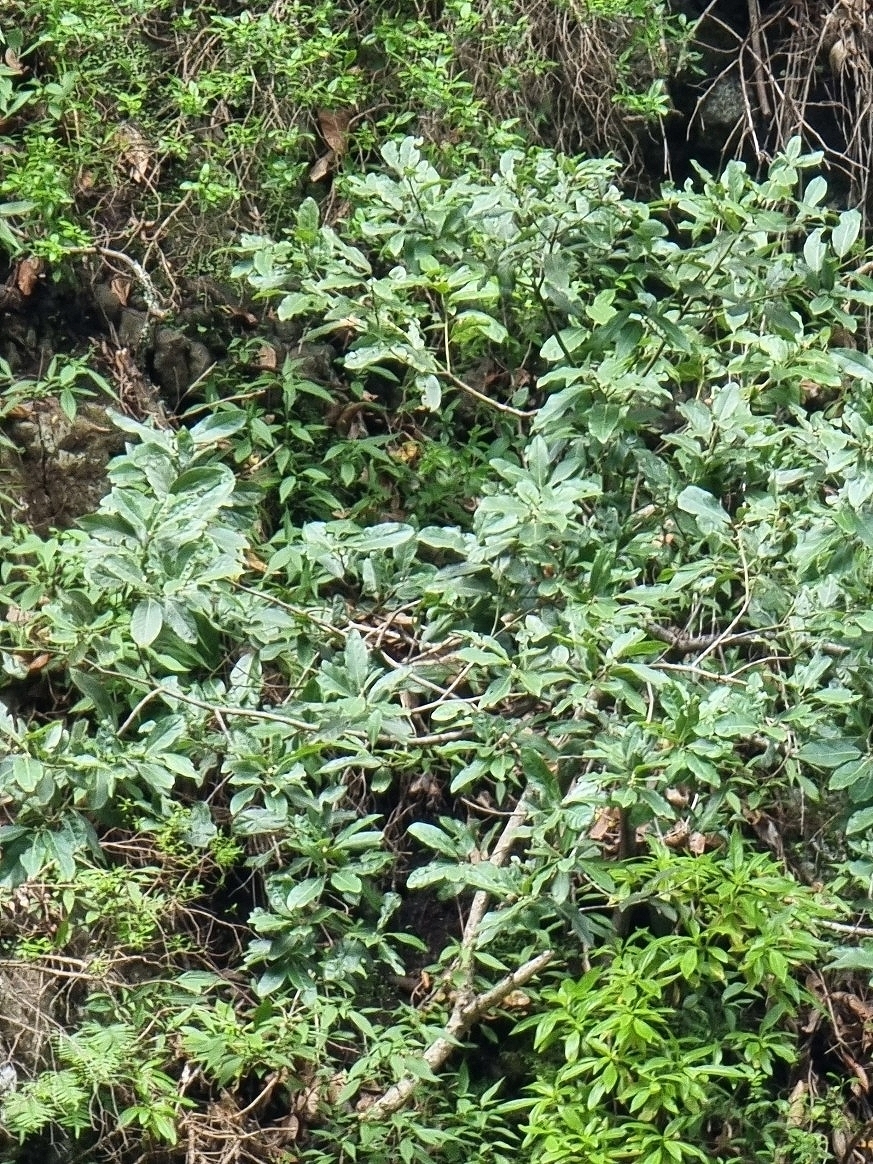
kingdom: Plantae
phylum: Tracheophyta
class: Magnoliopsida
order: Laurales
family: Lauraceae
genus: Laurus
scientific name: Laurus novocanariensis
